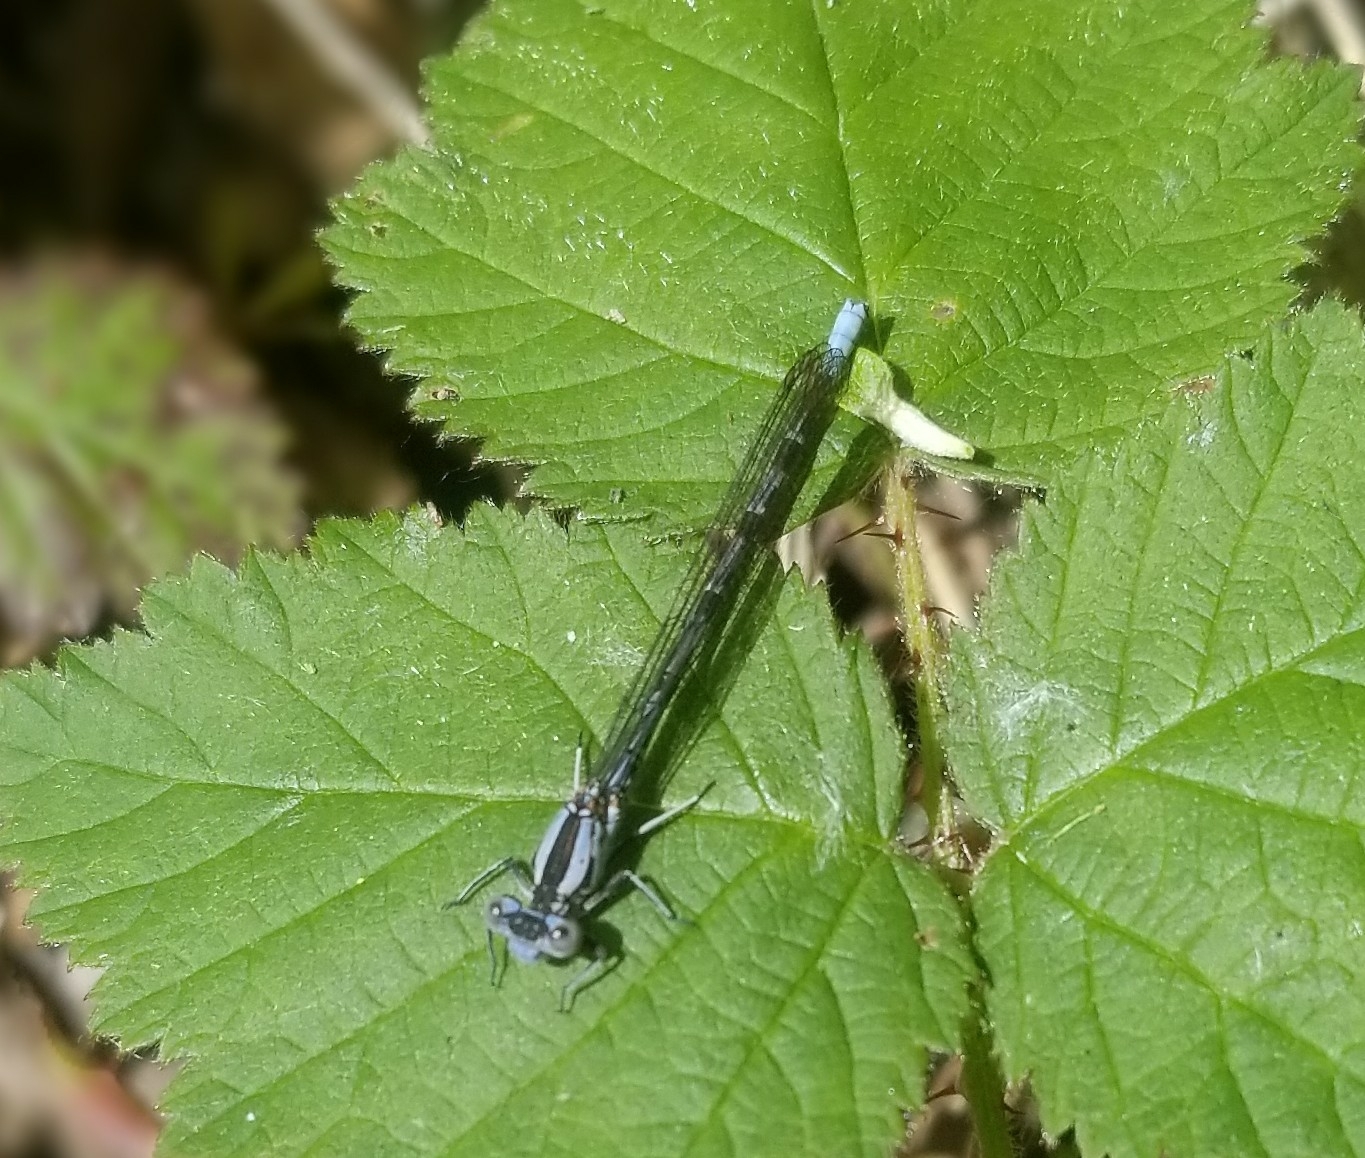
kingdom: Animalia
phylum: Arthropoda
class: Insecta
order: Odonata
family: Coenagrionidae
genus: Argia
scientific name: Argia vivida
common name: Vivid dancer
